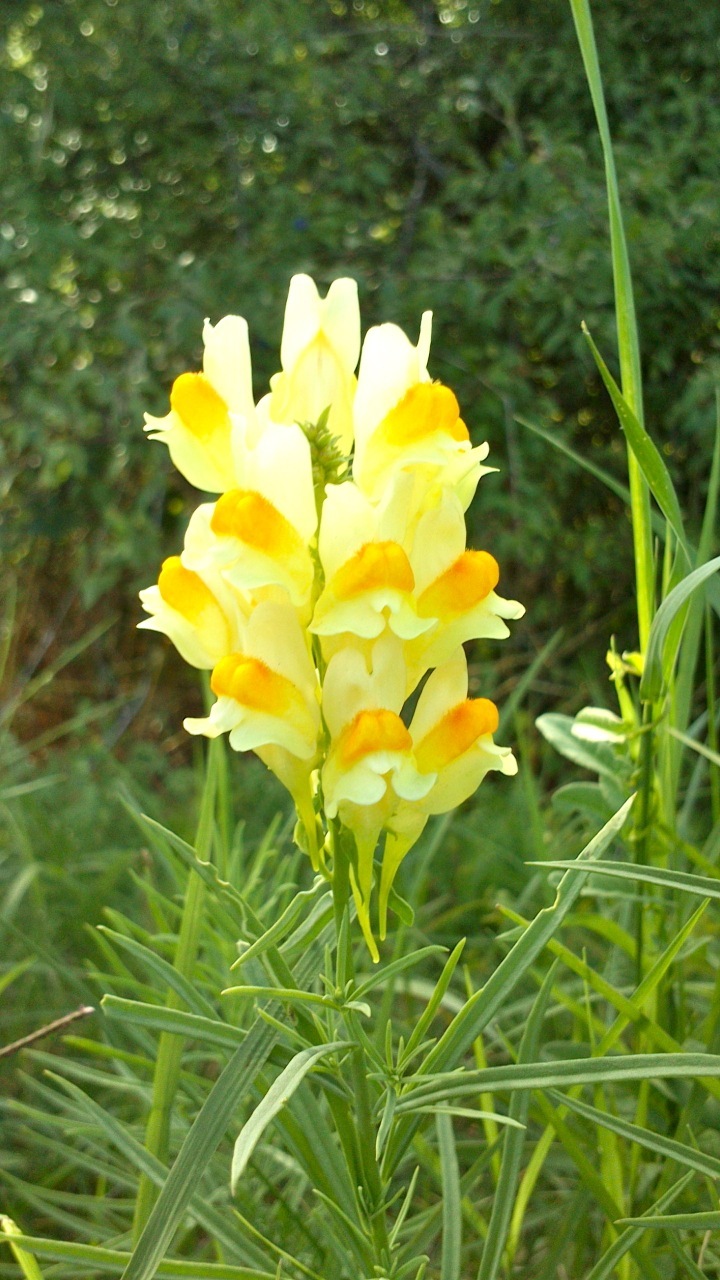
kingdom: Plantae
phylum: Tracheophyta
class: Magnoliopsida
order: Lamiales
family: Plantaginaceae
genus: Linaria
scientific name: Linaria vulgaris
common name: Butter and eggs
